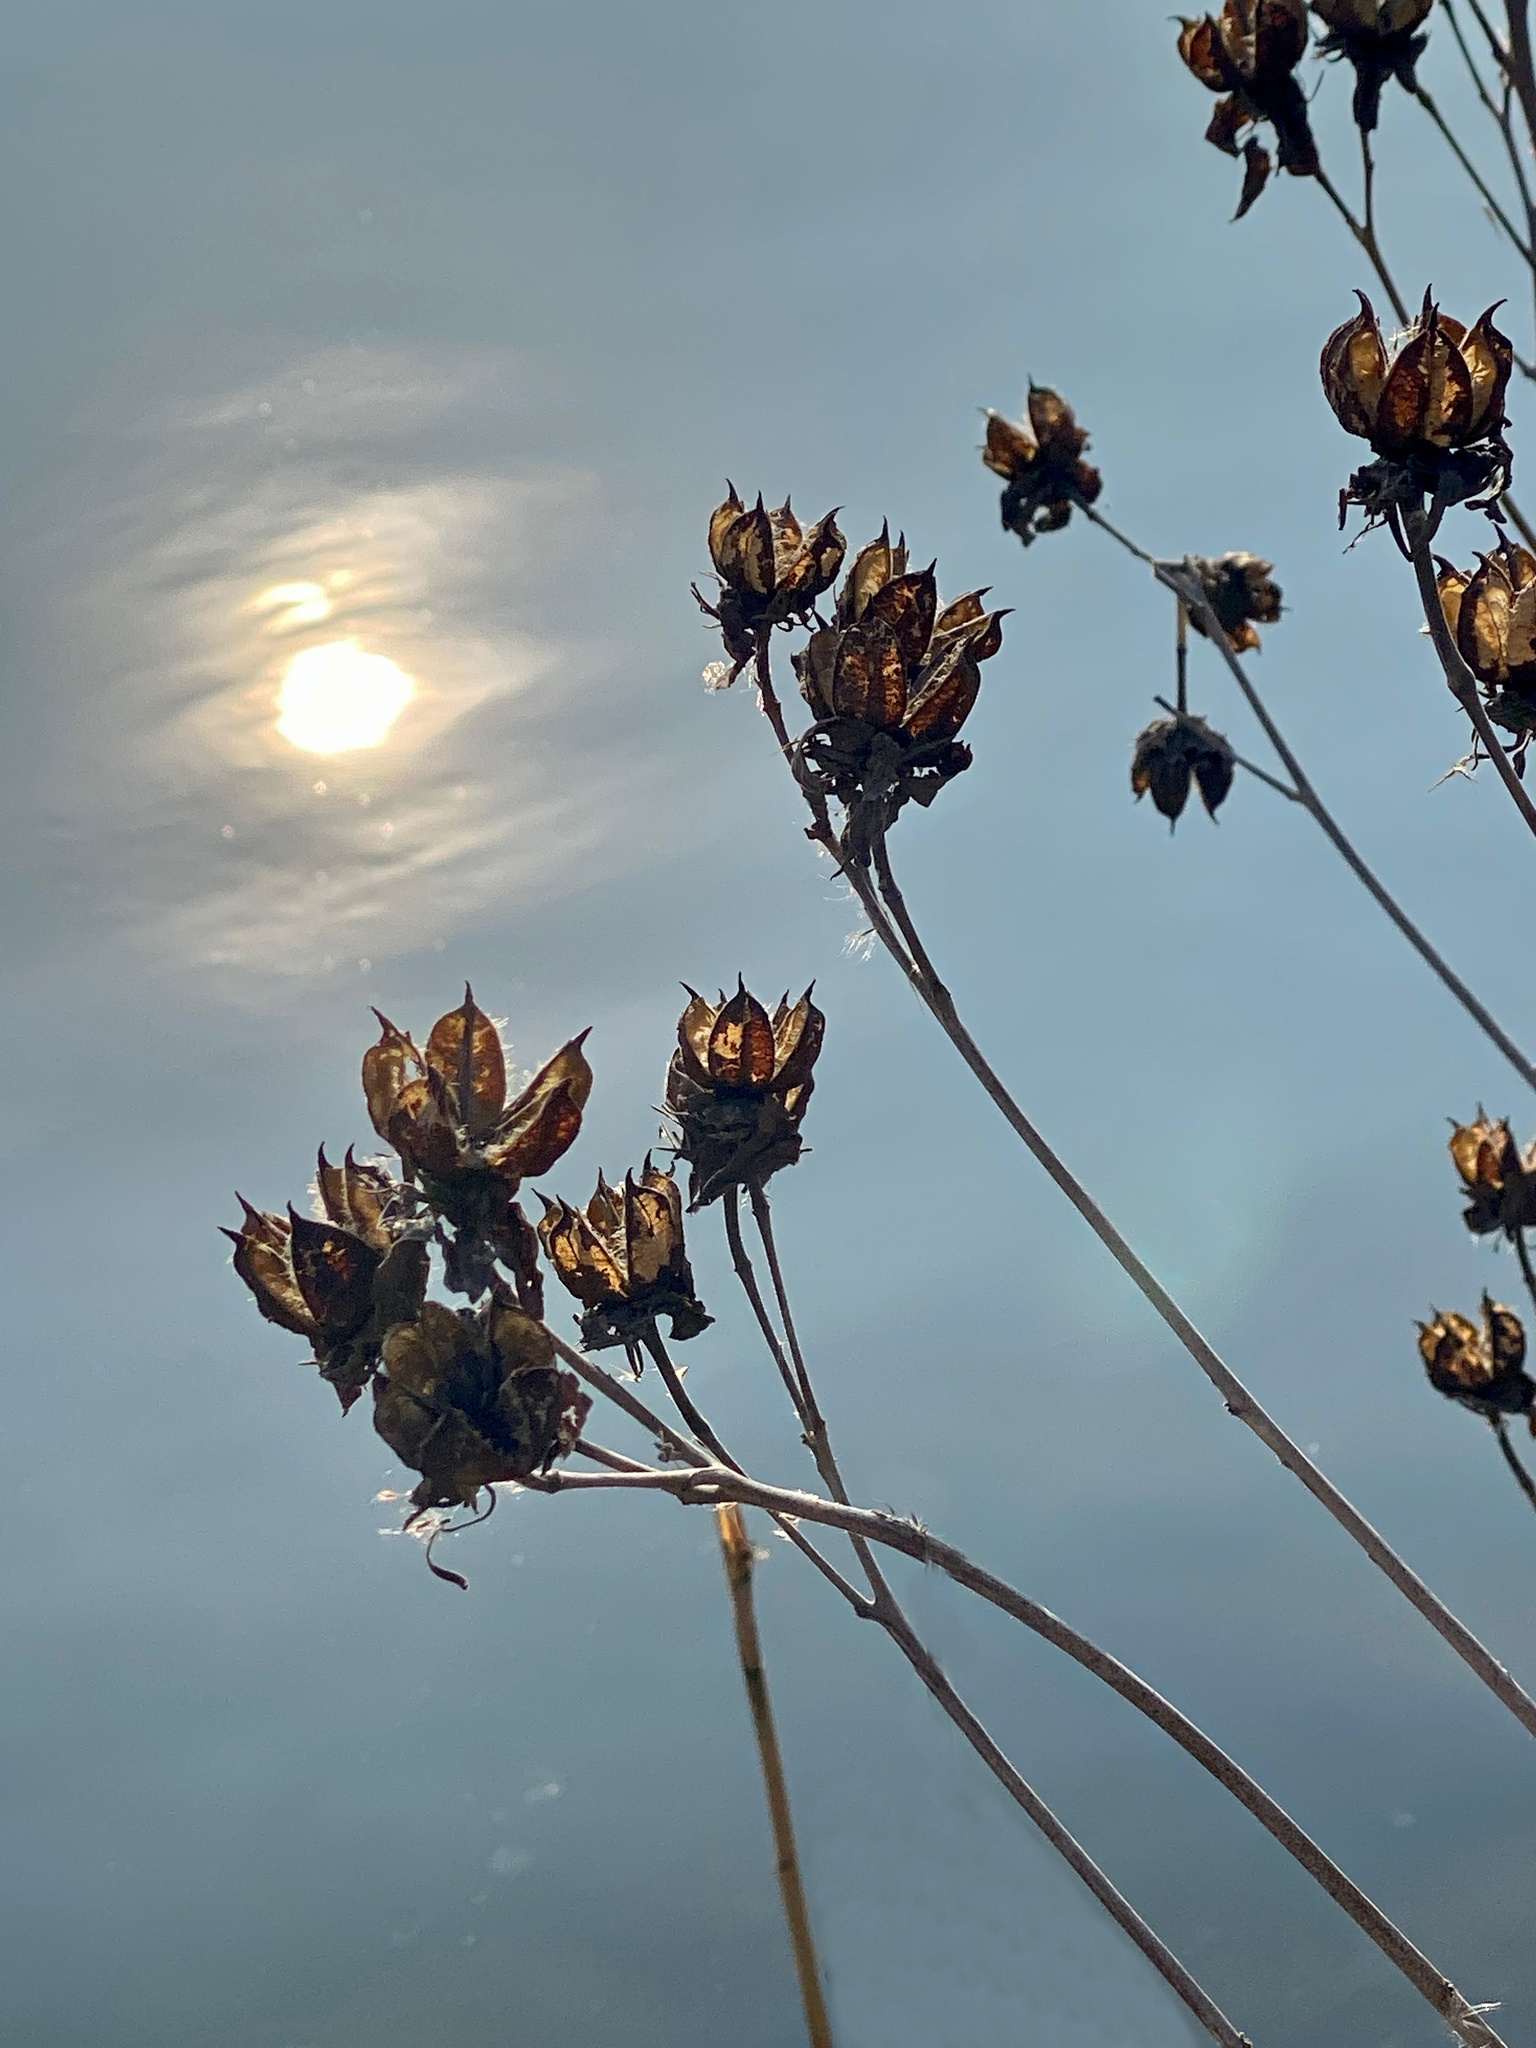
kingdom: Plantae
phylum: Tracheophyta
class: Magnoliopsida
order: Malvales
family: Malvaceae
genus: Hibiscus
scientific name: Hibiscus moscheutos
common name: Common rose-mallow
